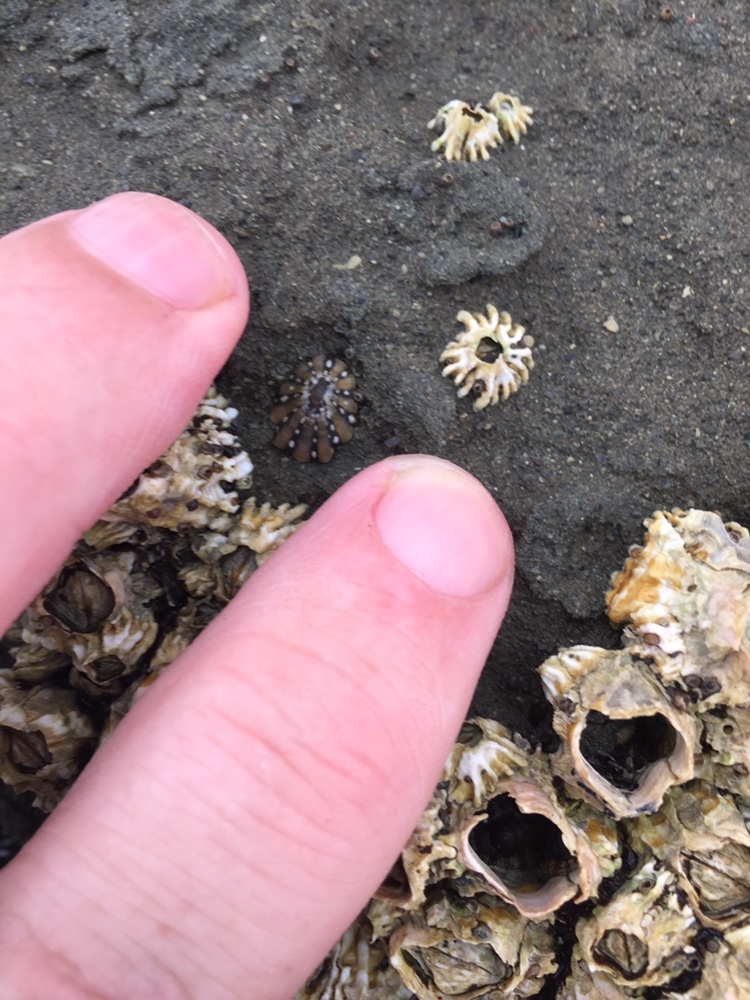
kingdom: Animalia
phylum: Mollusca
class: Gastropoda
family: Nacellidae
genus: Cellana
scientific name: Cellana ornata
